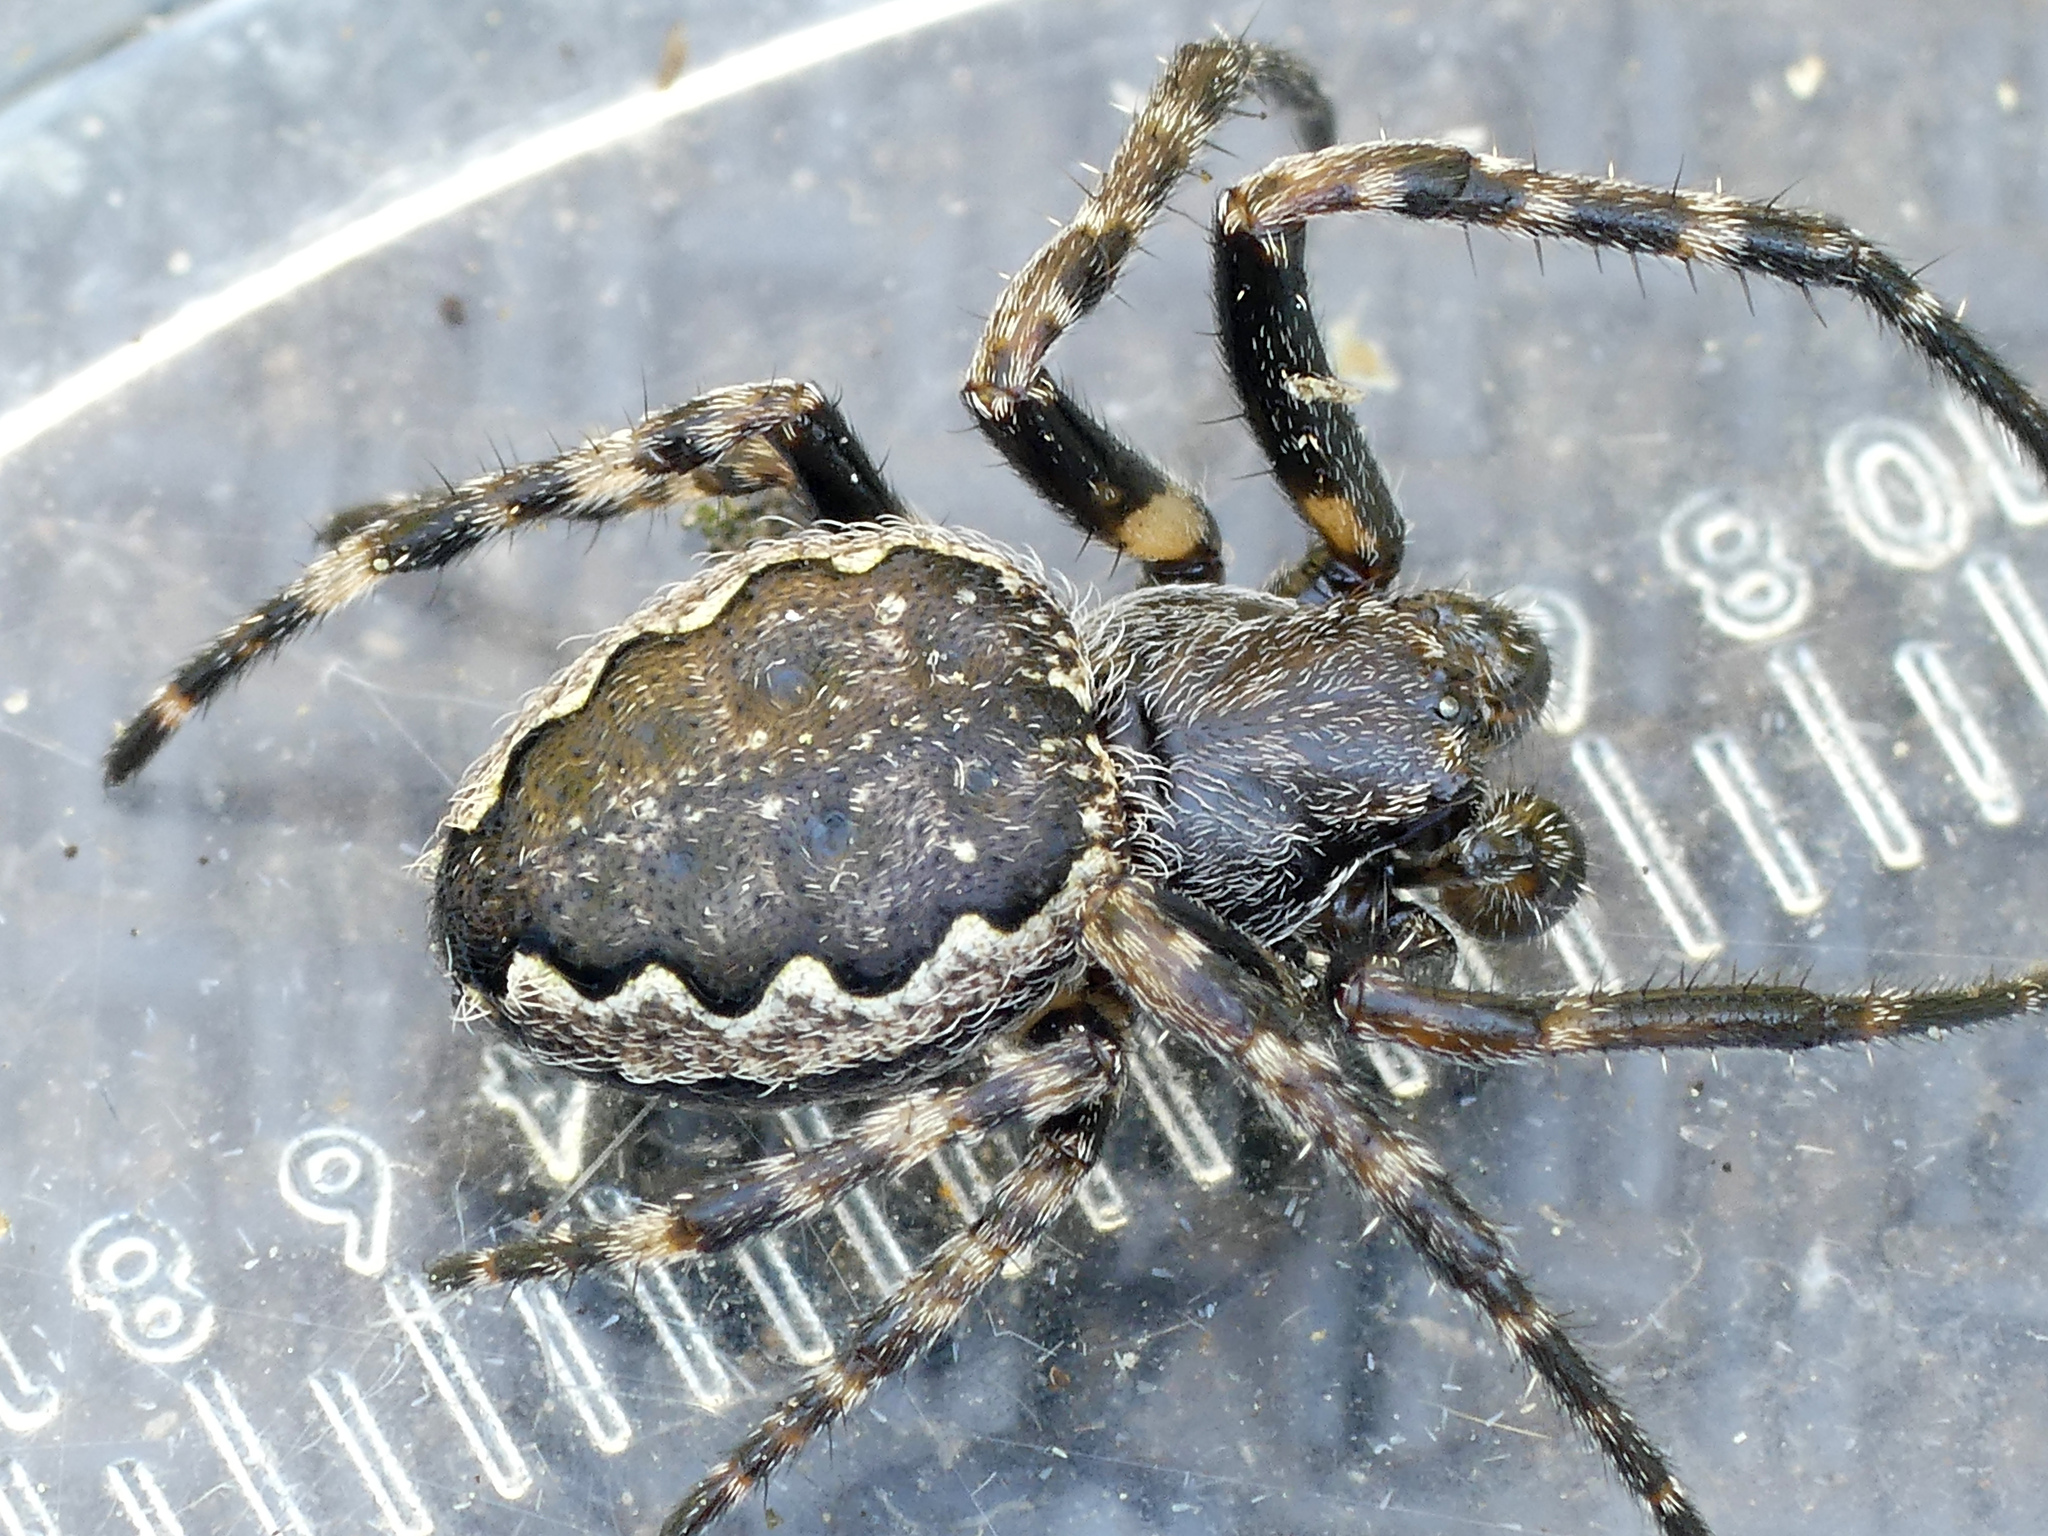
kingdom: Animalia
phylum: Arthropoda
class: Arachnida
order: Araneae
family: Araneidae
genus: Nuctenea
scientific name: Nuctenea umbratica
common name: Toad spider
